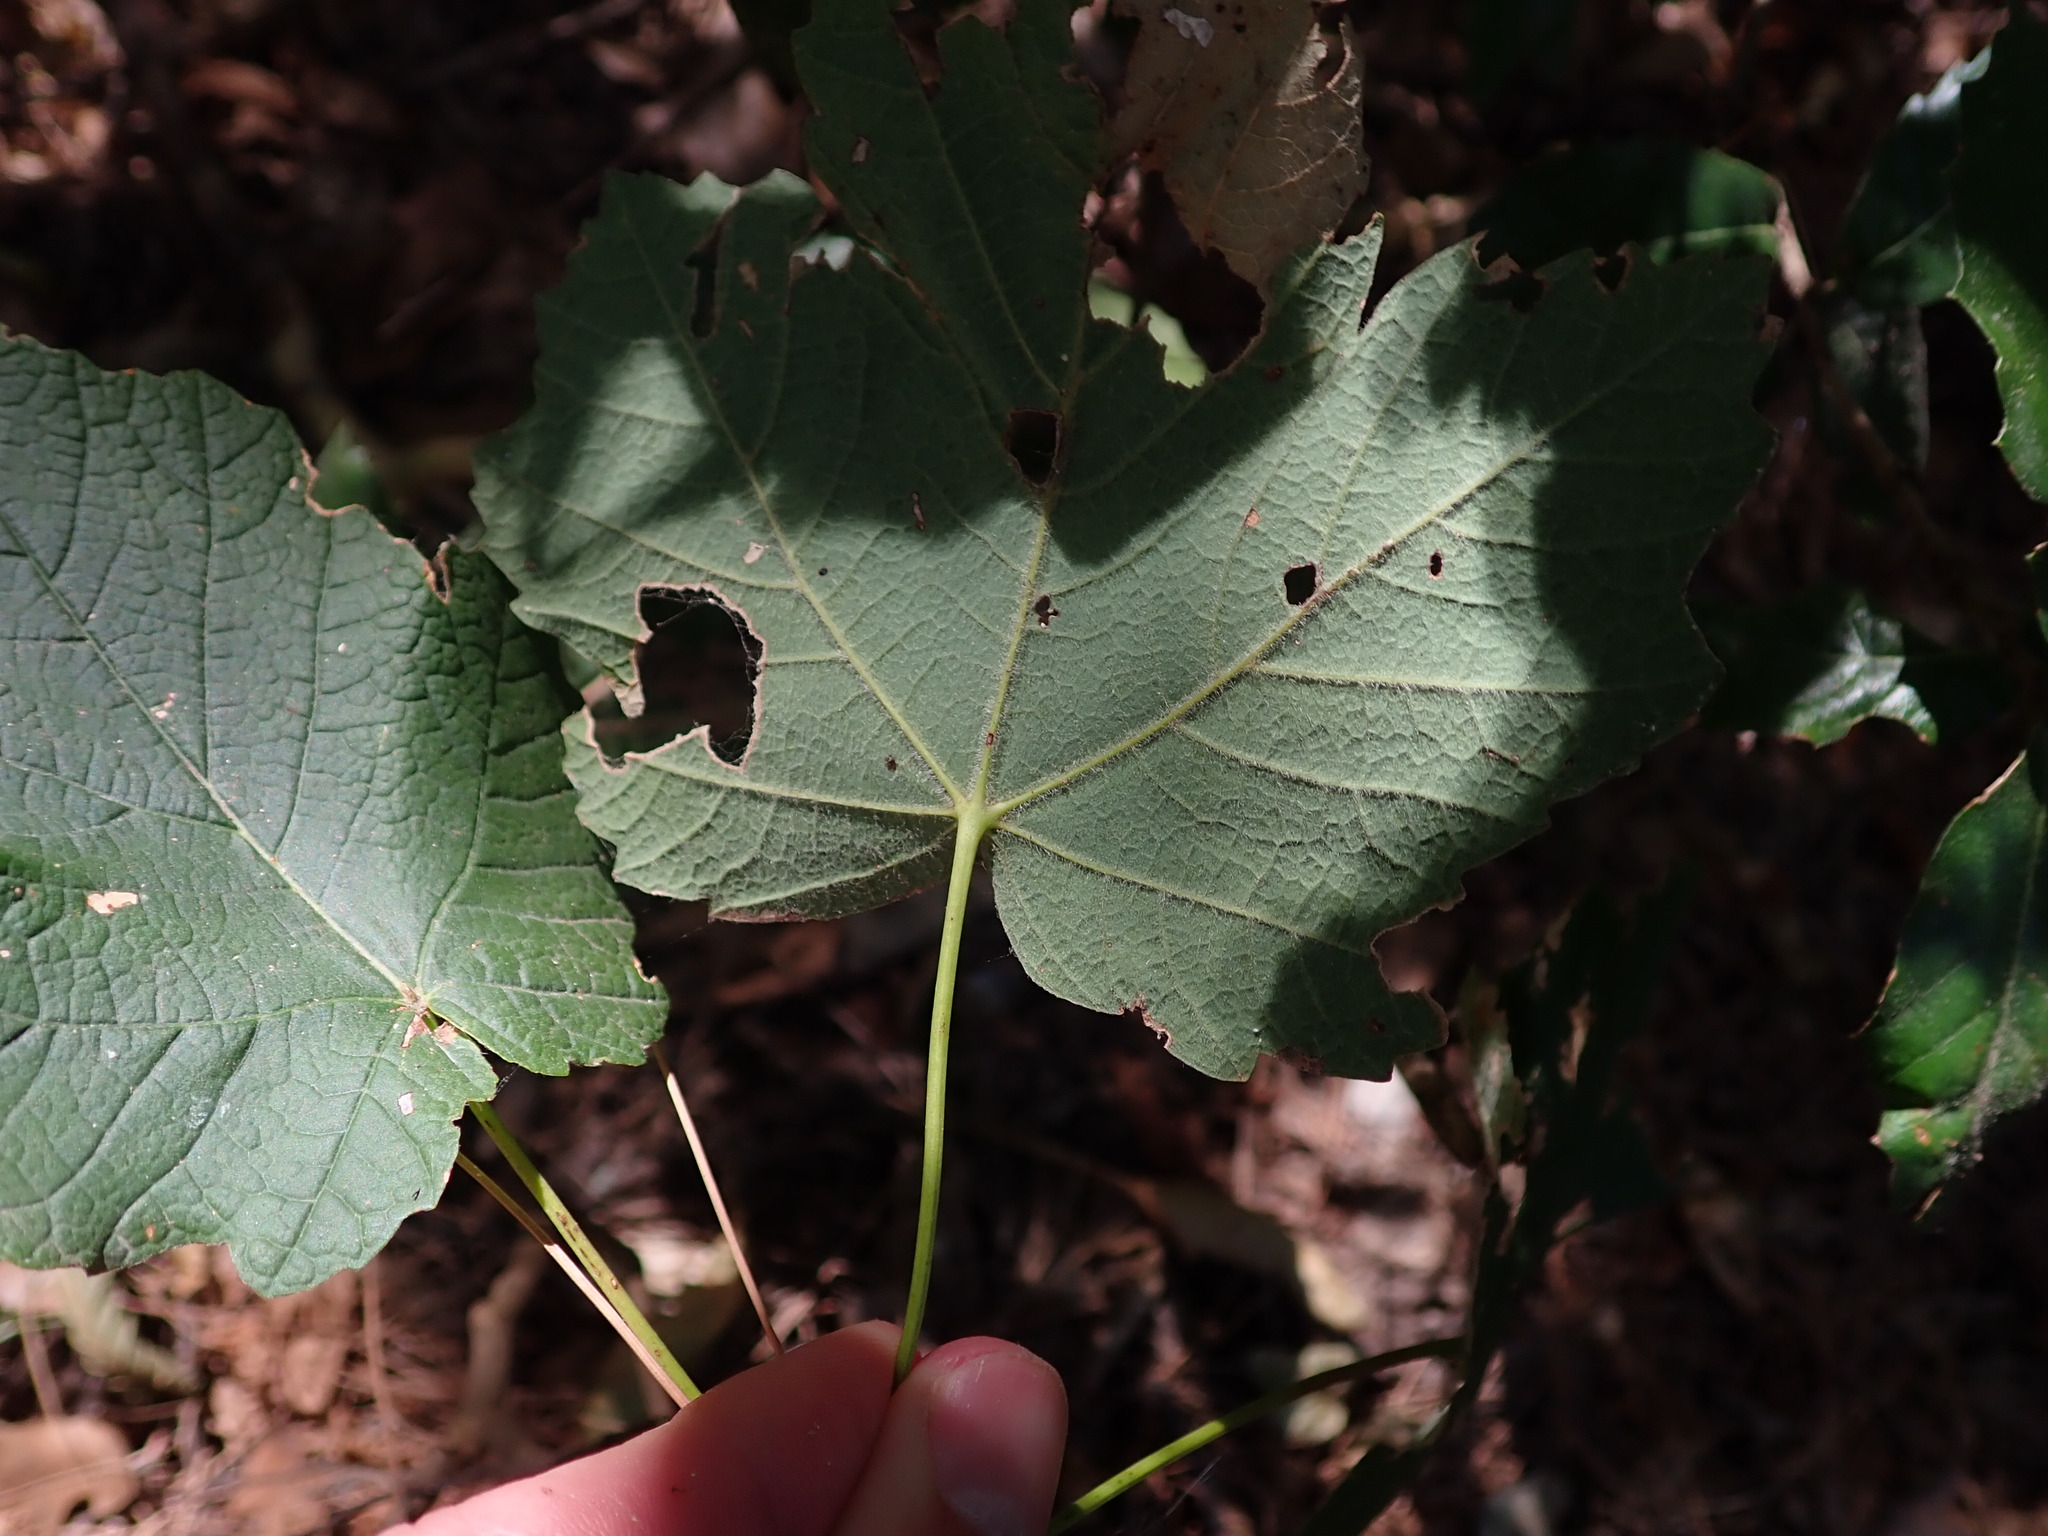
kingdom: Plantae
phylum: Tracheophyta
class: Magnoliopsida
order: Sapindales
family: Sapindaceae
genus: Acer
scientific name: Acer opalus
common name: Italian maple
